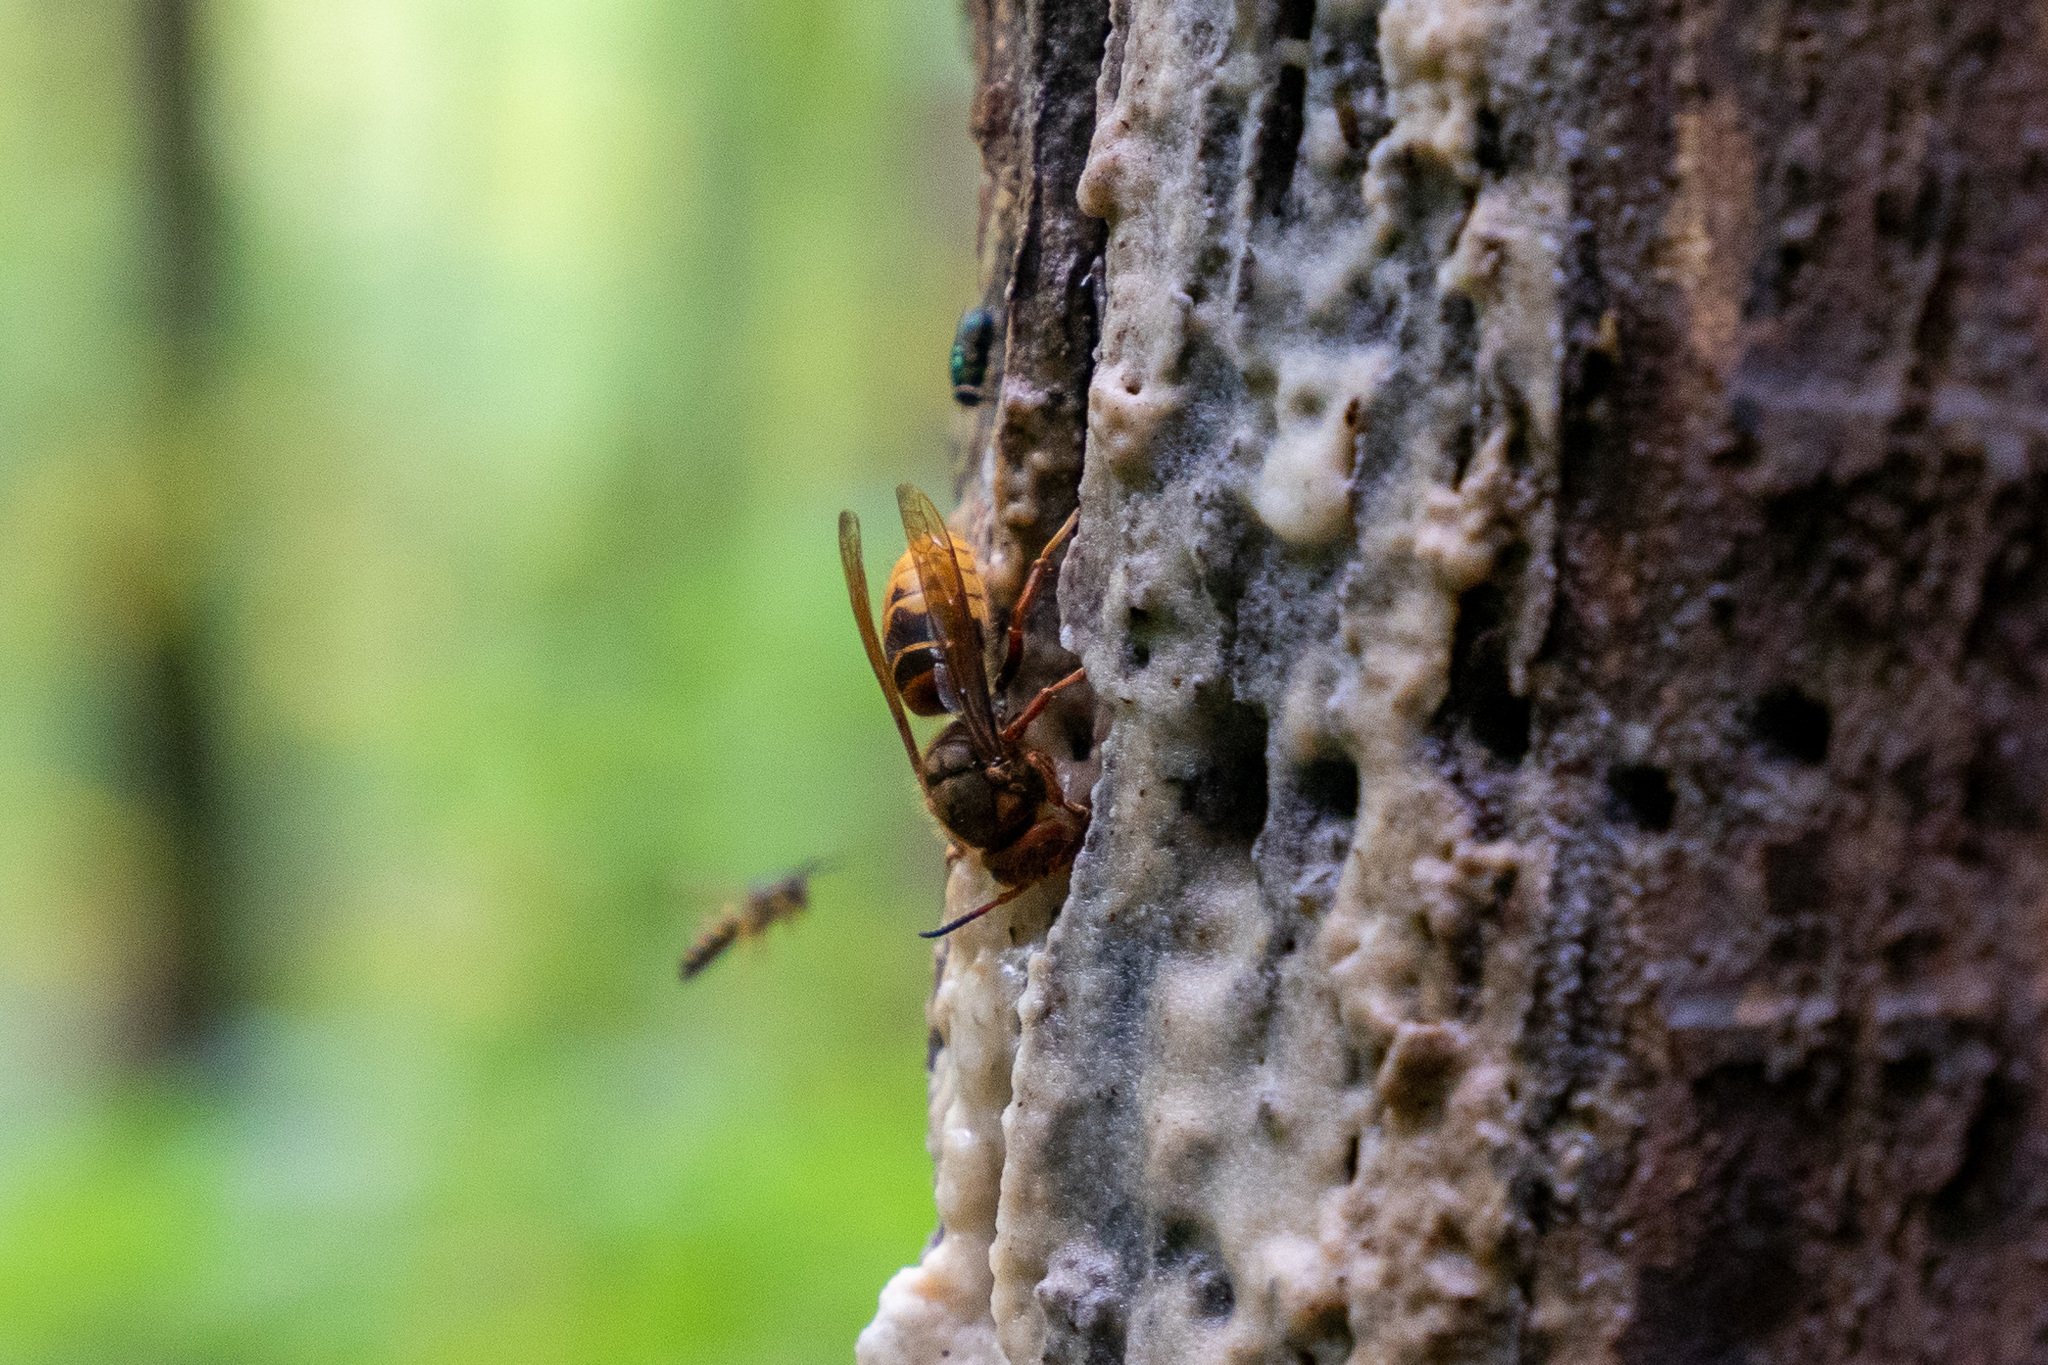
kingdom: Animalia
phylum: Arthropoda
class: Insecta
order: Hymenoptera
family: Vespidae
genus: Vespa
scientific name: Vespa crabro
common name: Hornet
